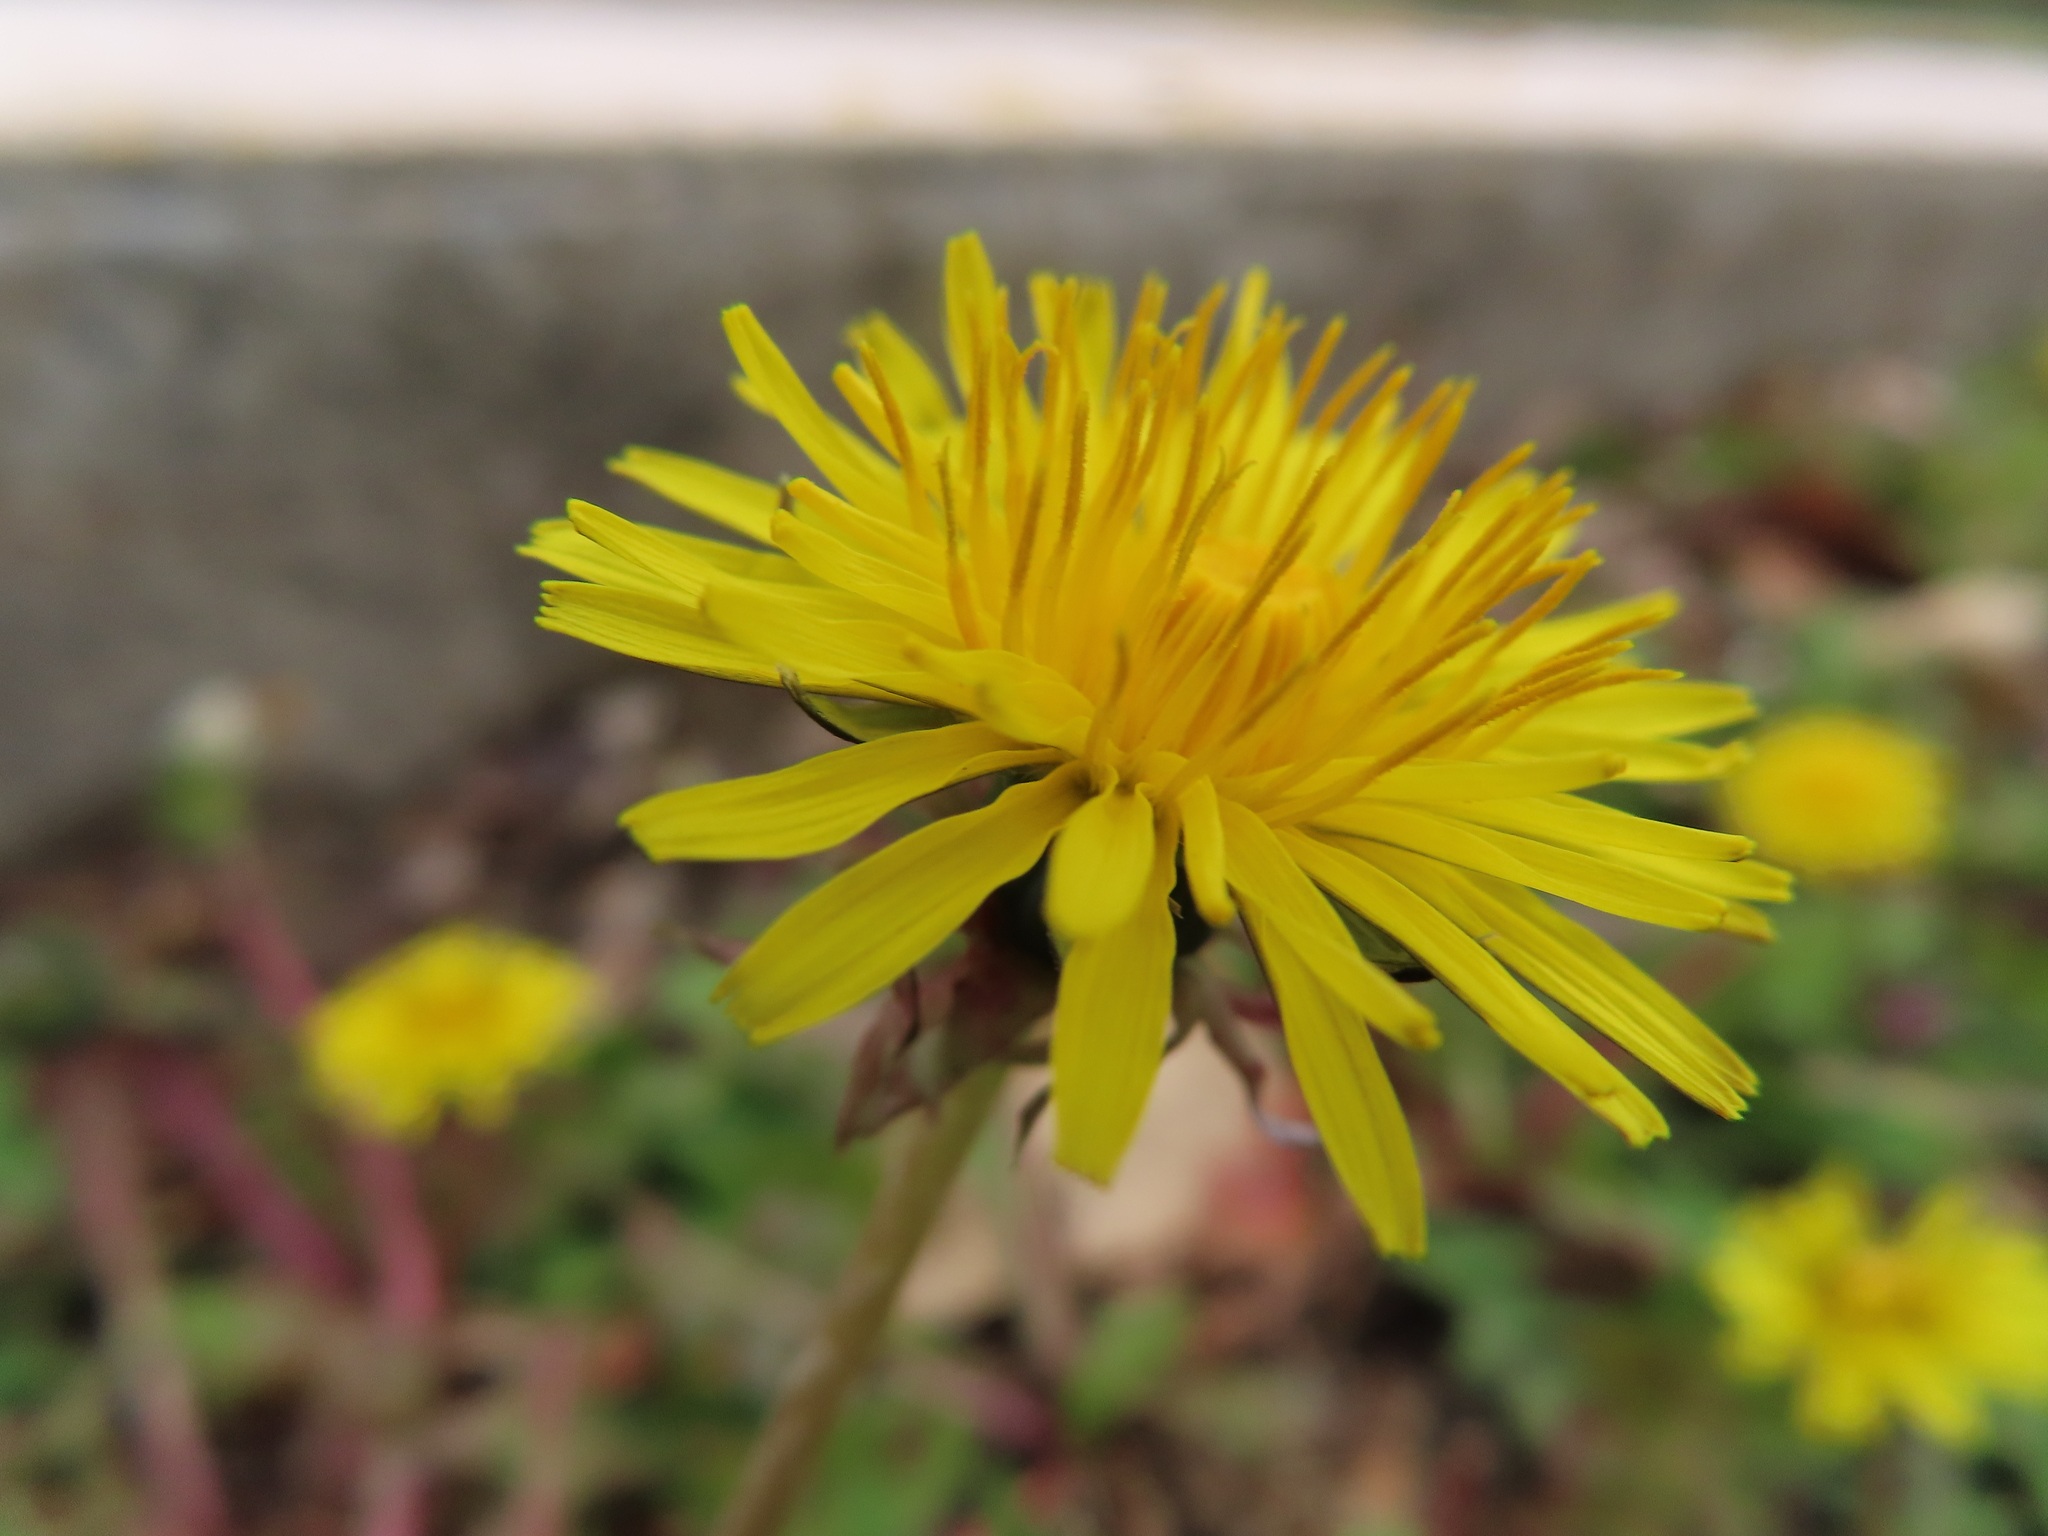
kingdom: Plantae
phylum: Tracheophyta
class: Magnoliopsida
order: Asterales
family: Asteraceae
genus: Taraxacum
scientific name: Taraxacum
